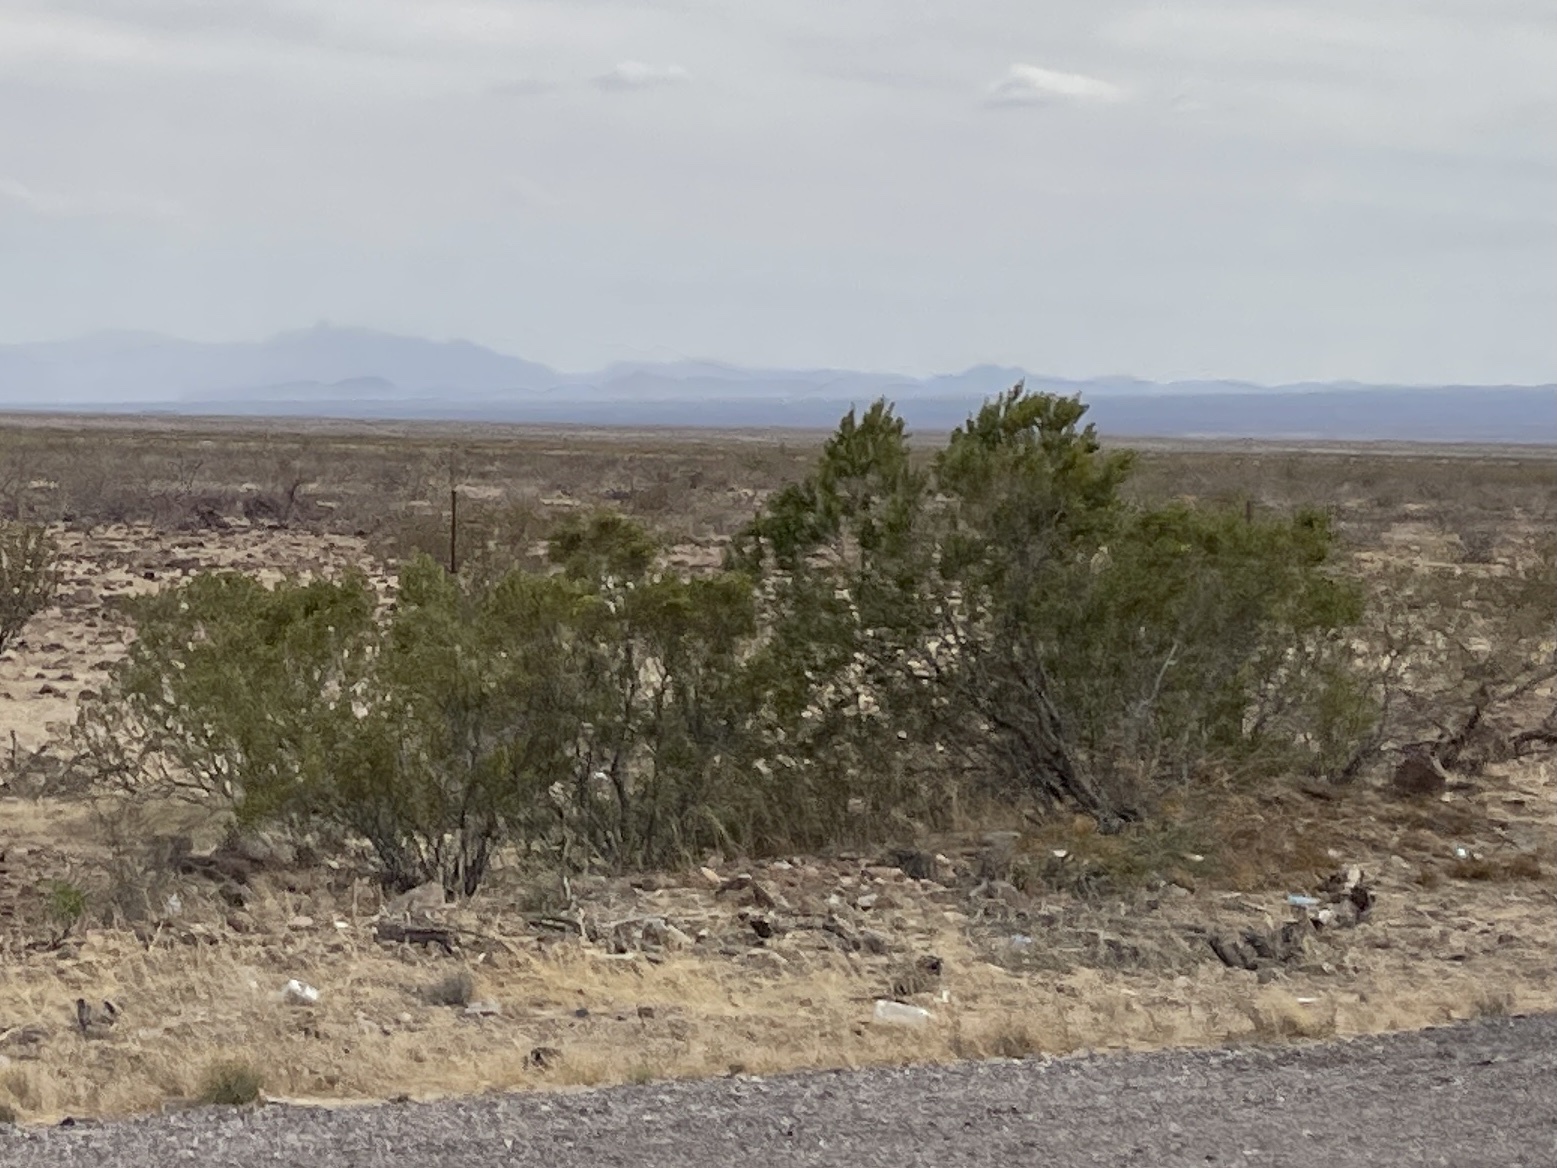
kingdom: Plantae
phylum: Tracheophyta
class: Magnoliopsida
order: Zygophyllales
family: Zygophyllaceae
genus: Larrea
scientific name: Larrea tridentata
